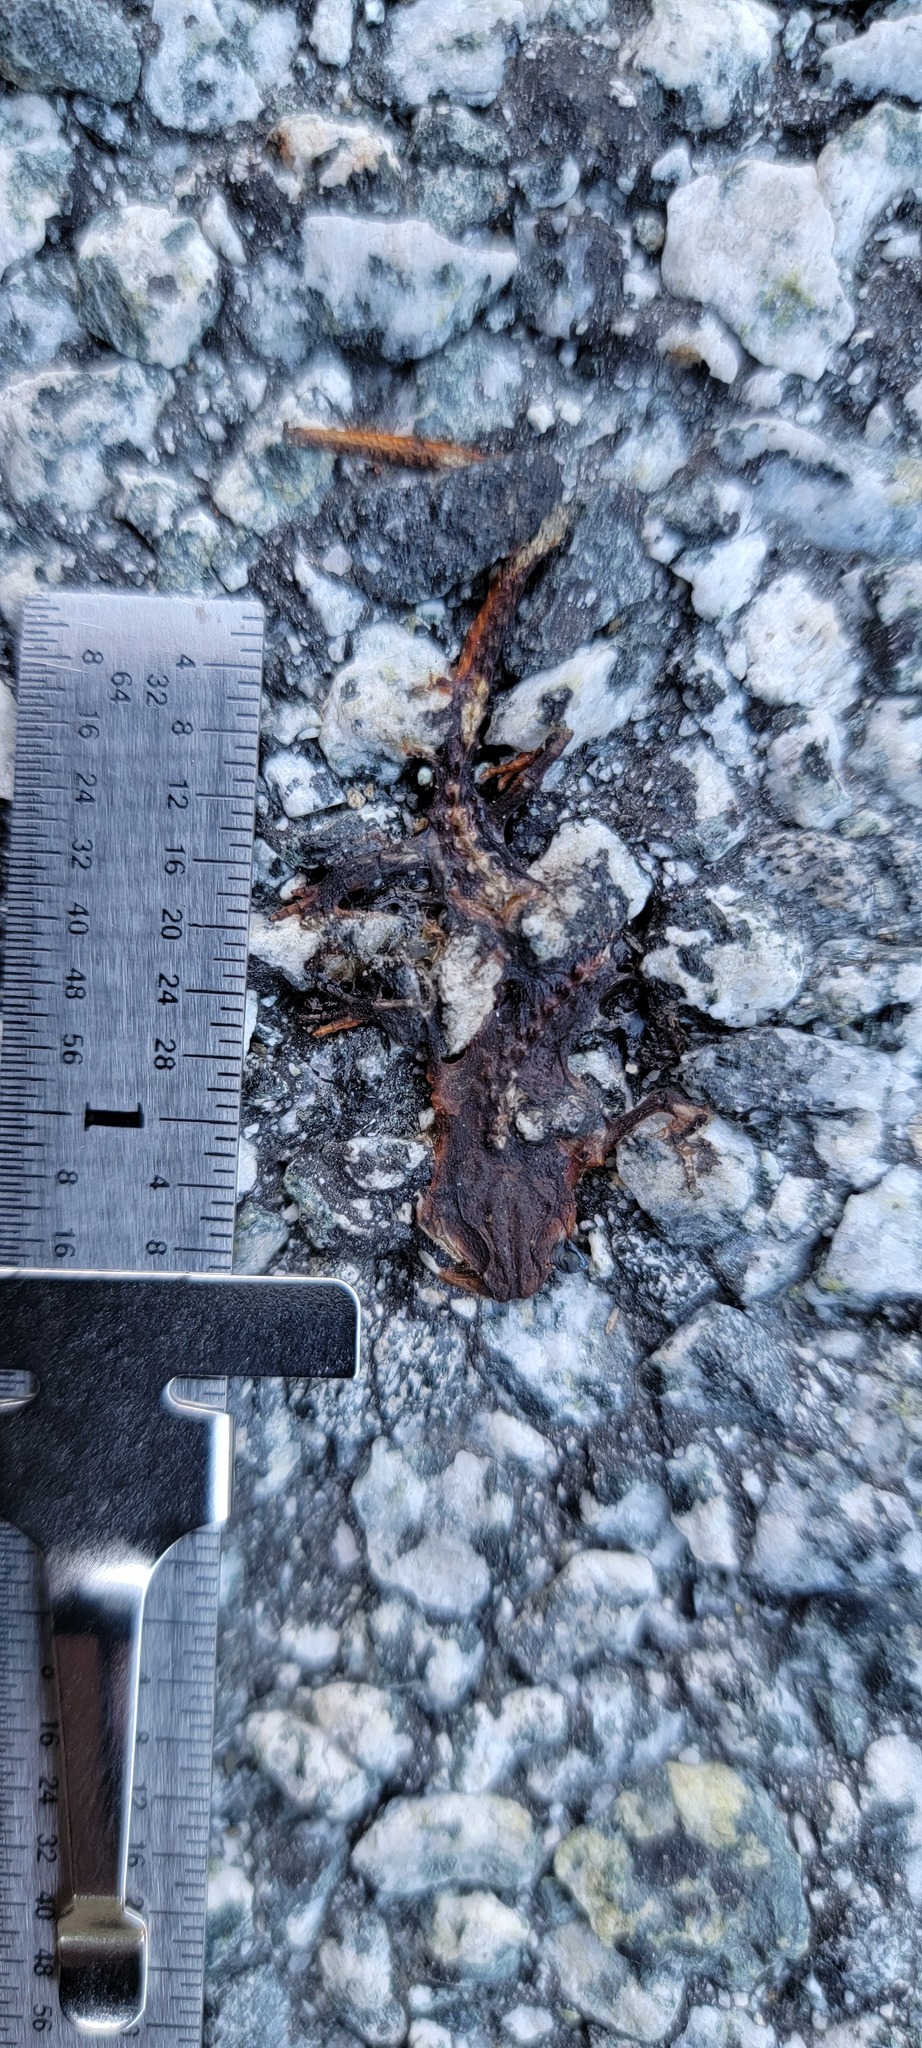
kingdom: Animalia
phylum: Chordata
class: Amphibia
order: Caudata
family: Salamandridae
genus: Taricha
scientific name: Taricha
